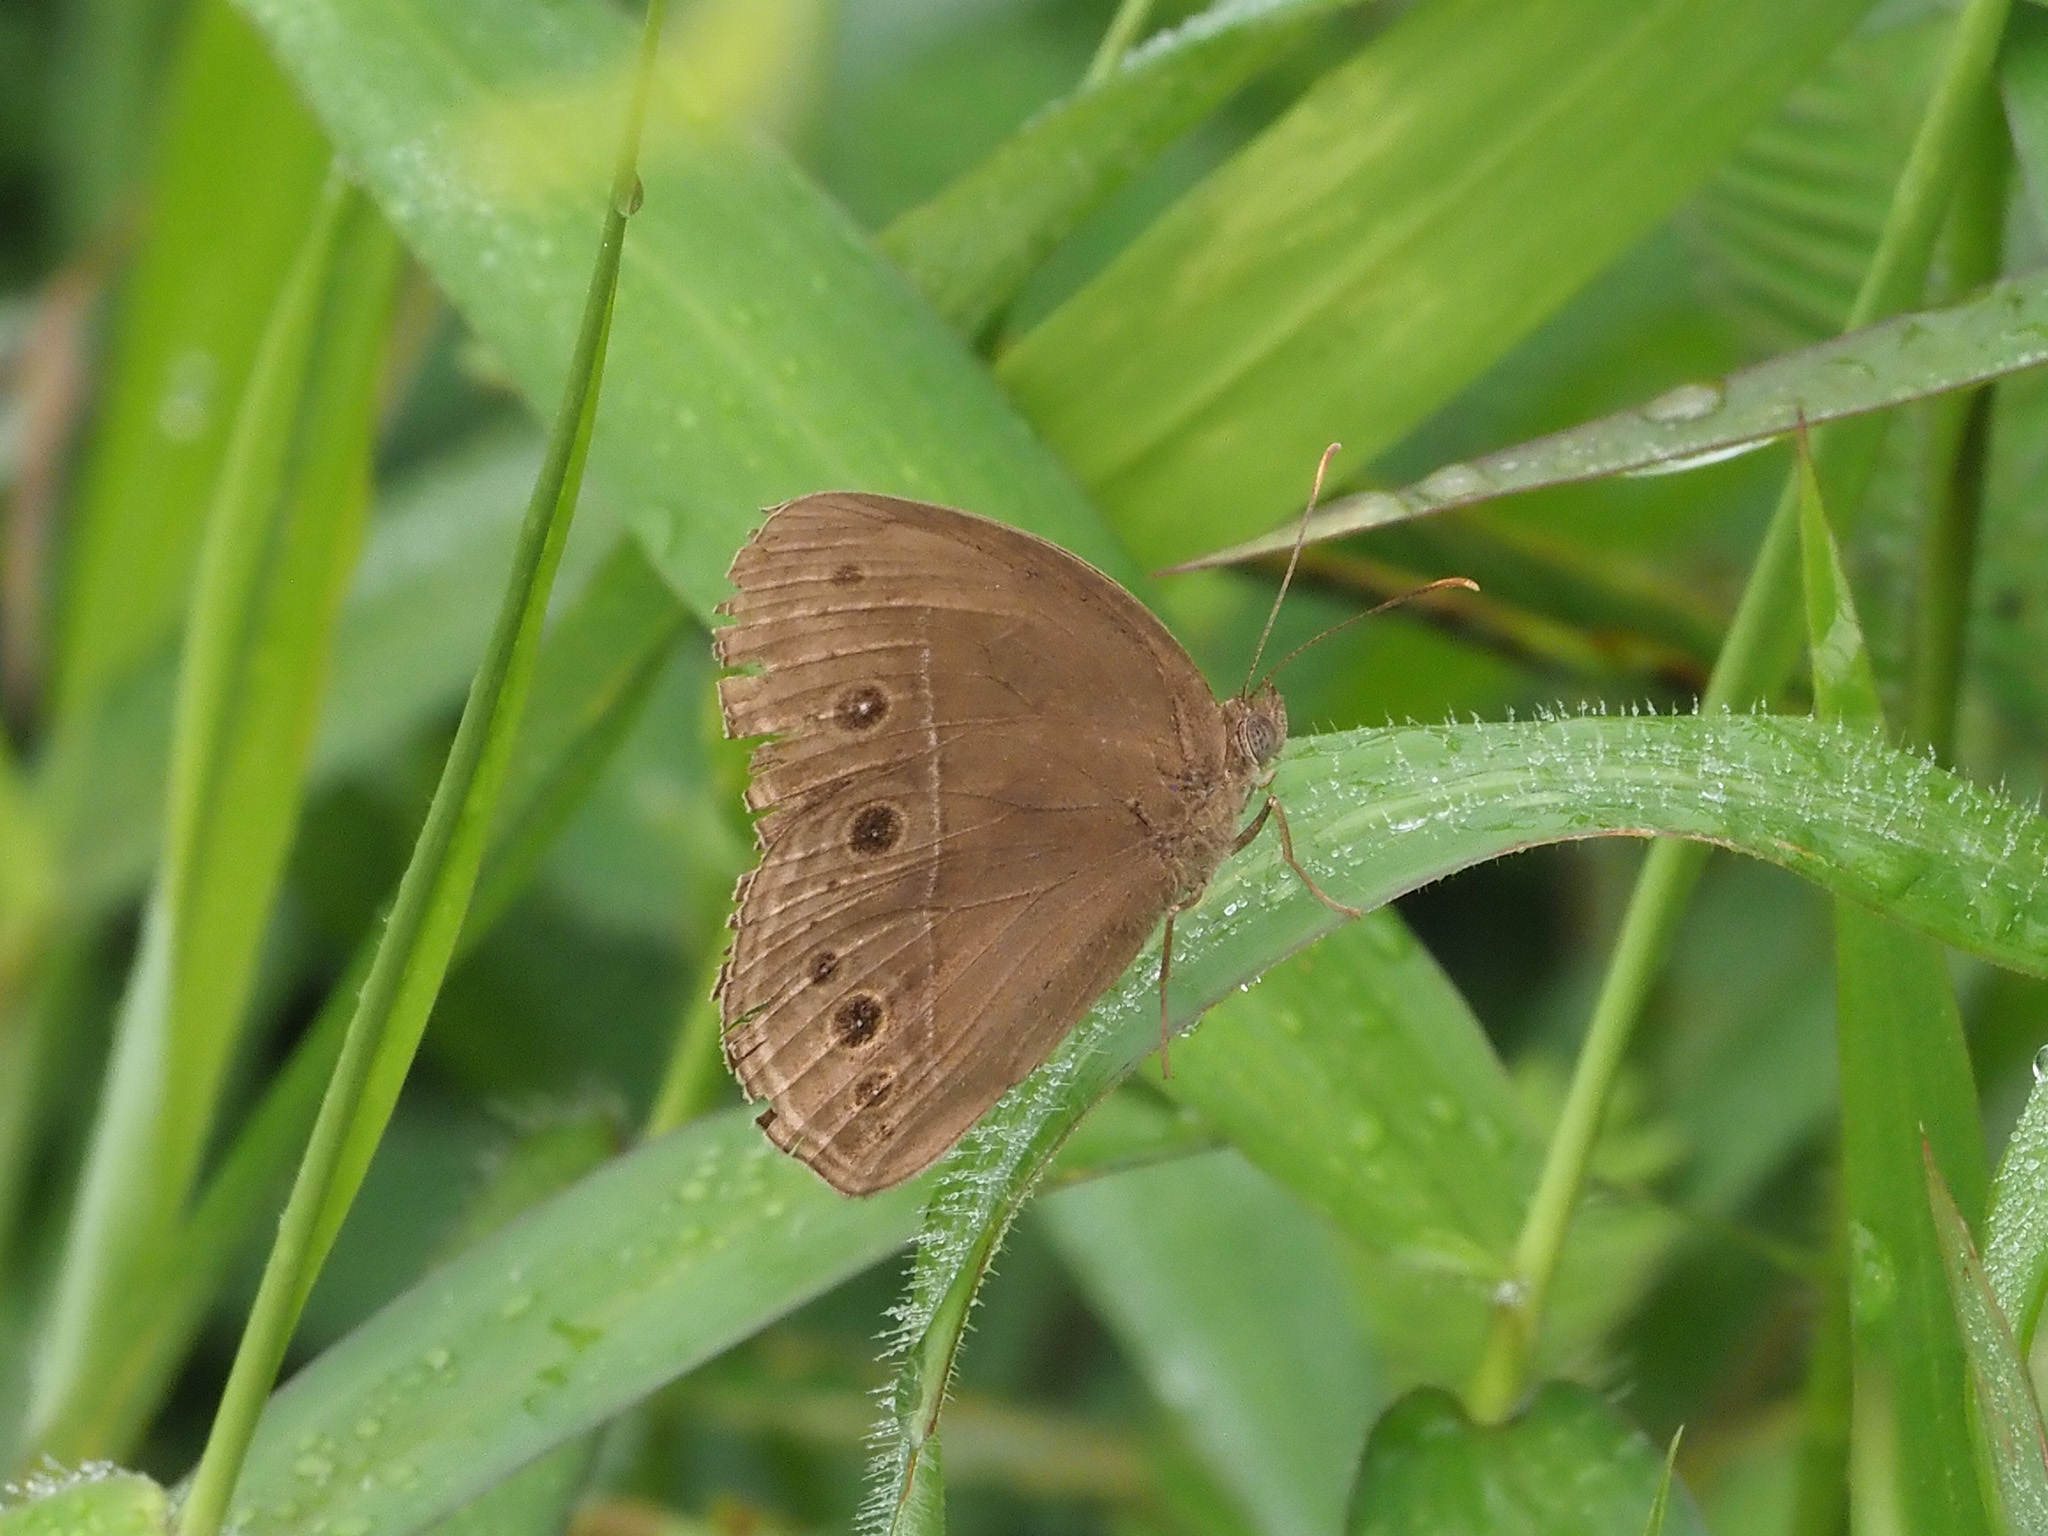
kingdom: Animalia
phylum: Arthropoda
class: Insecta
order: Lepidoptera
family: Nymphalidae
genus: Mycalesis
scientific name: Mycalesis perseus
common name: Dingy bushbrown
